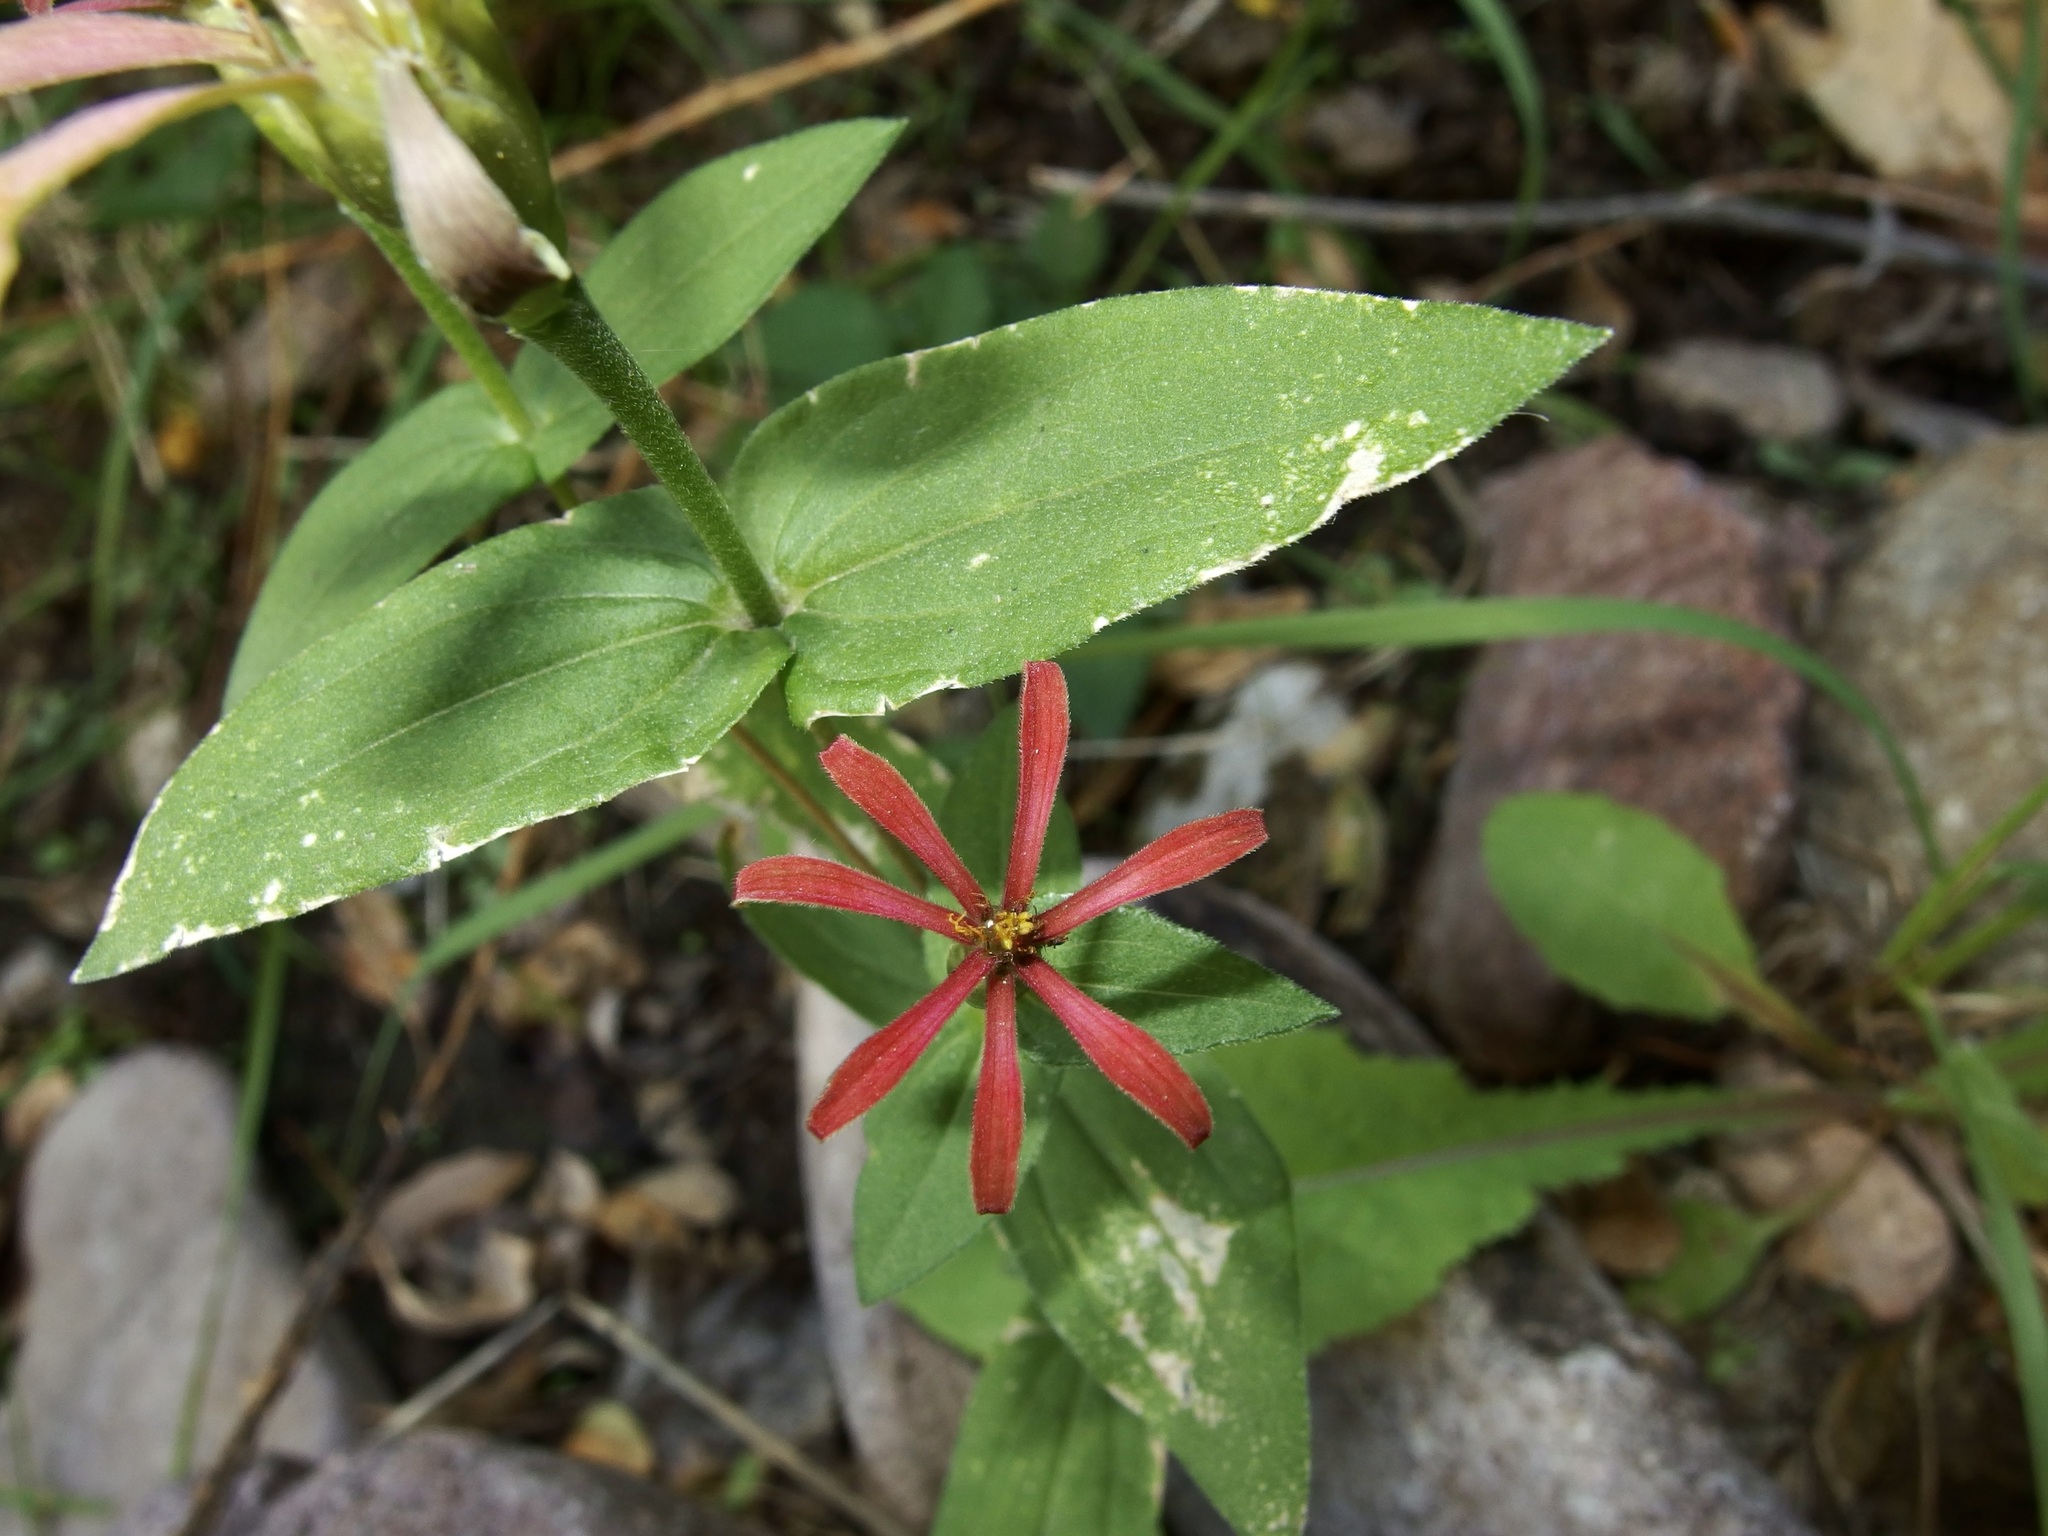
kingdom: Plantae
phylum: Tracheophyta
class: Magnoliopsida
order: Asterales
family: Asteraceae
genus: Zinnia
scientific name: Zinnia peruviana
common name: Peruvian zinnia
